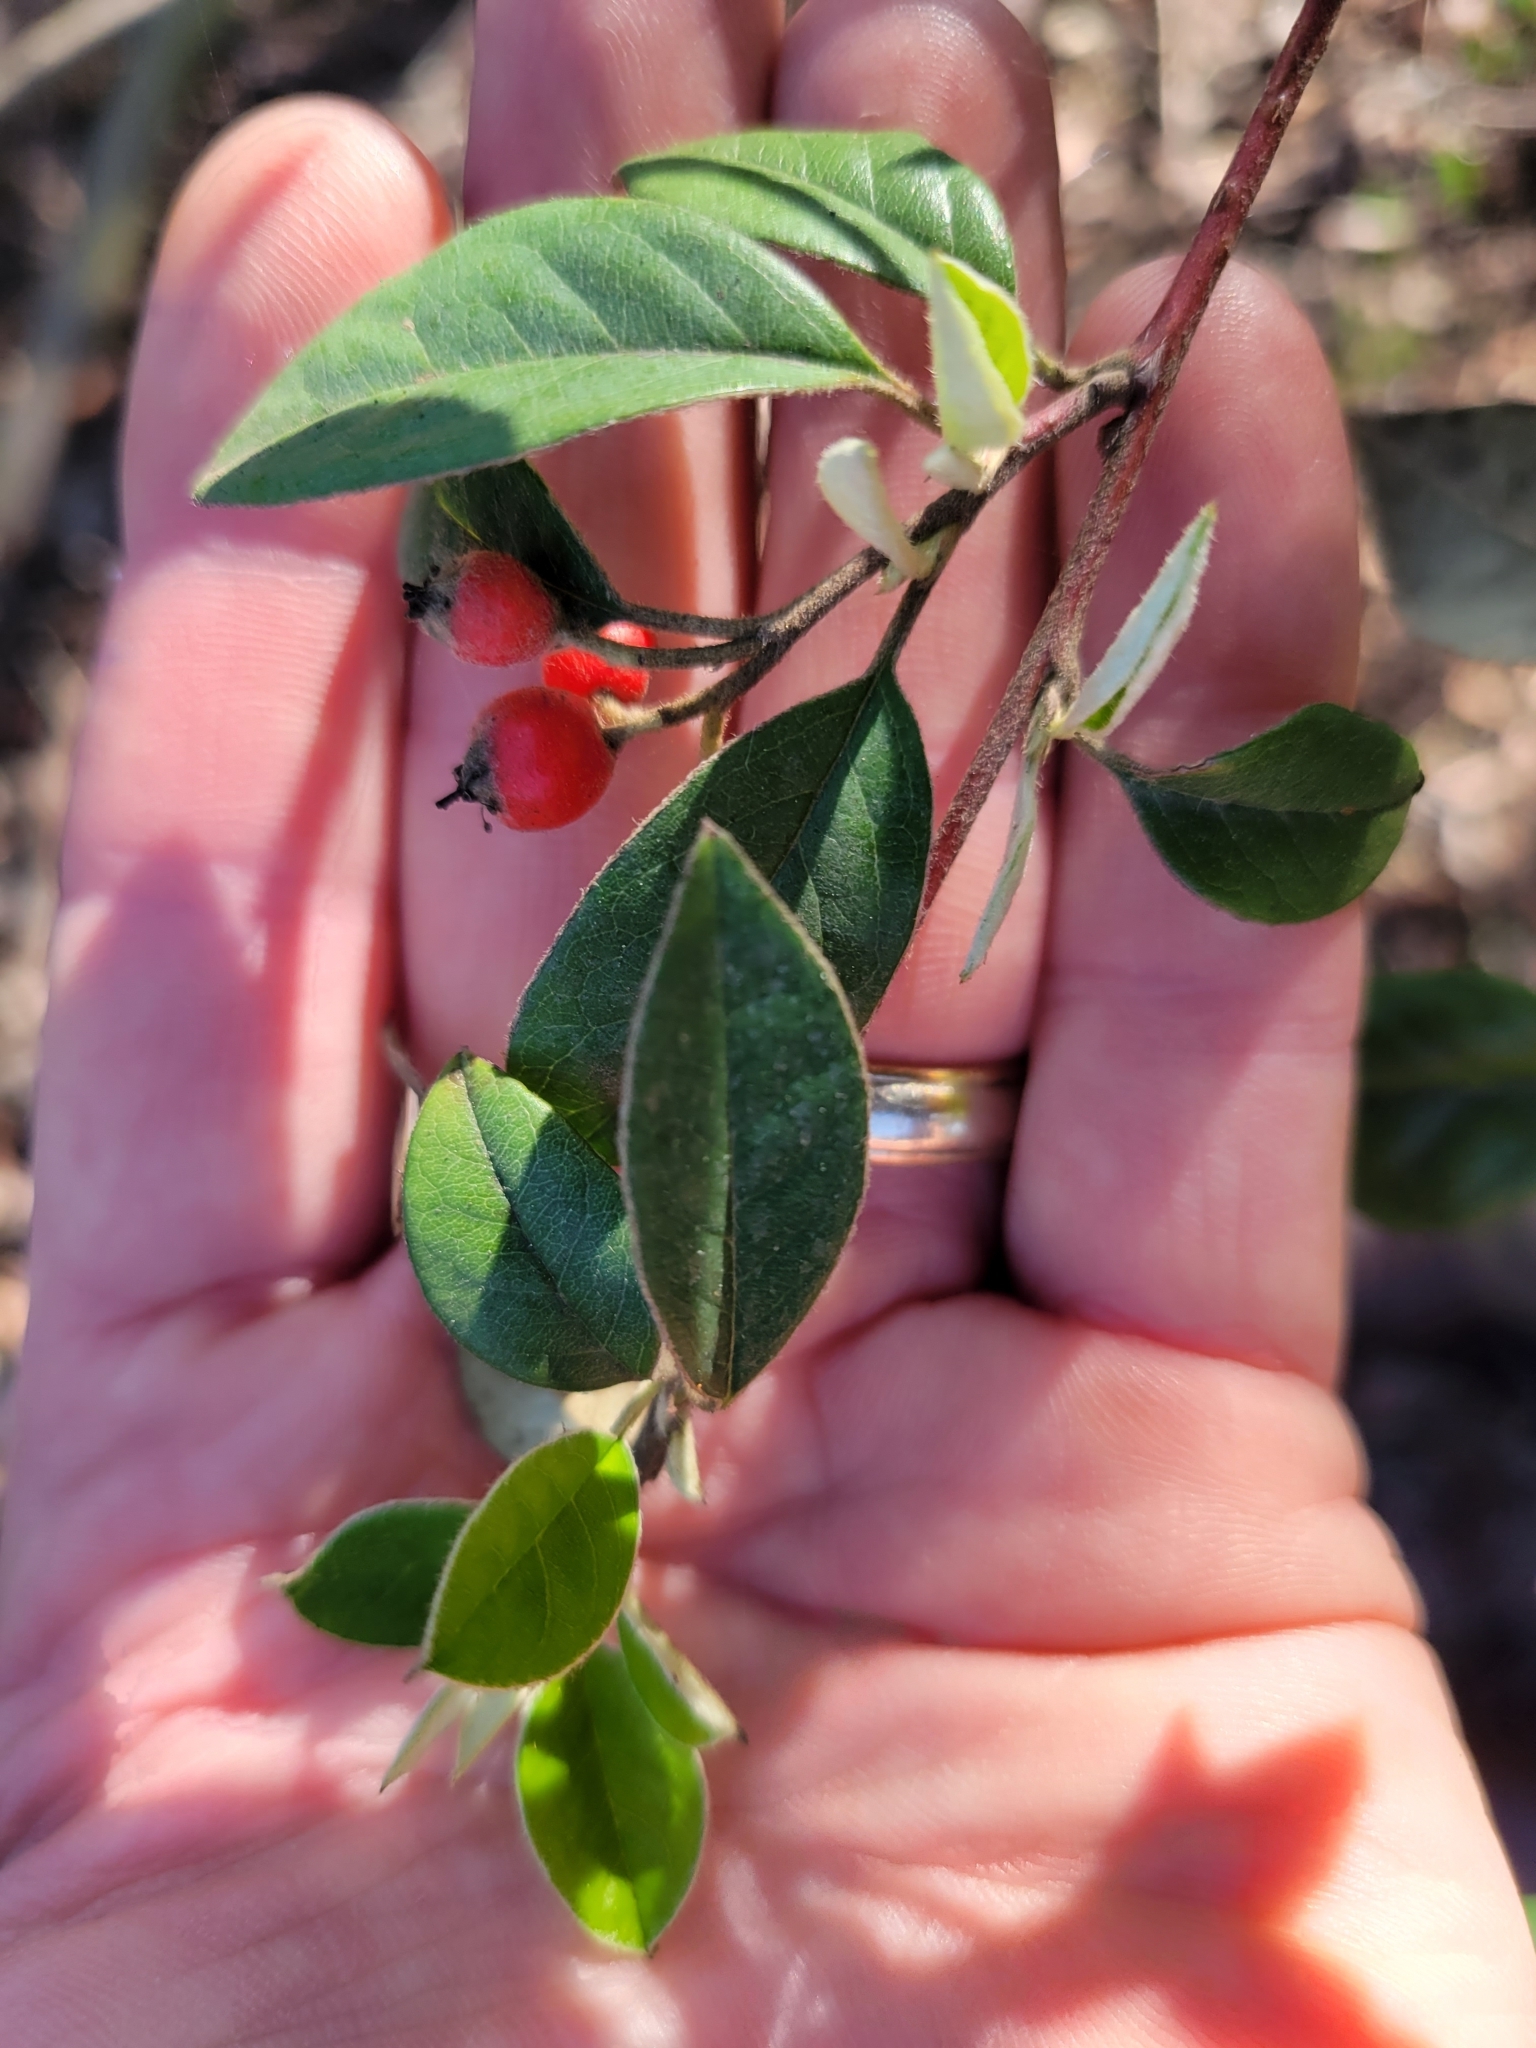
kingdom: Plantae
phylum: Tracheophyta
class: Magnoliopsida
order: Rosales
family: Rosaceae
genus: Cotoneaster
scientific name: Cotoneaster franchetii
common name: Franchet's cotoneaster
